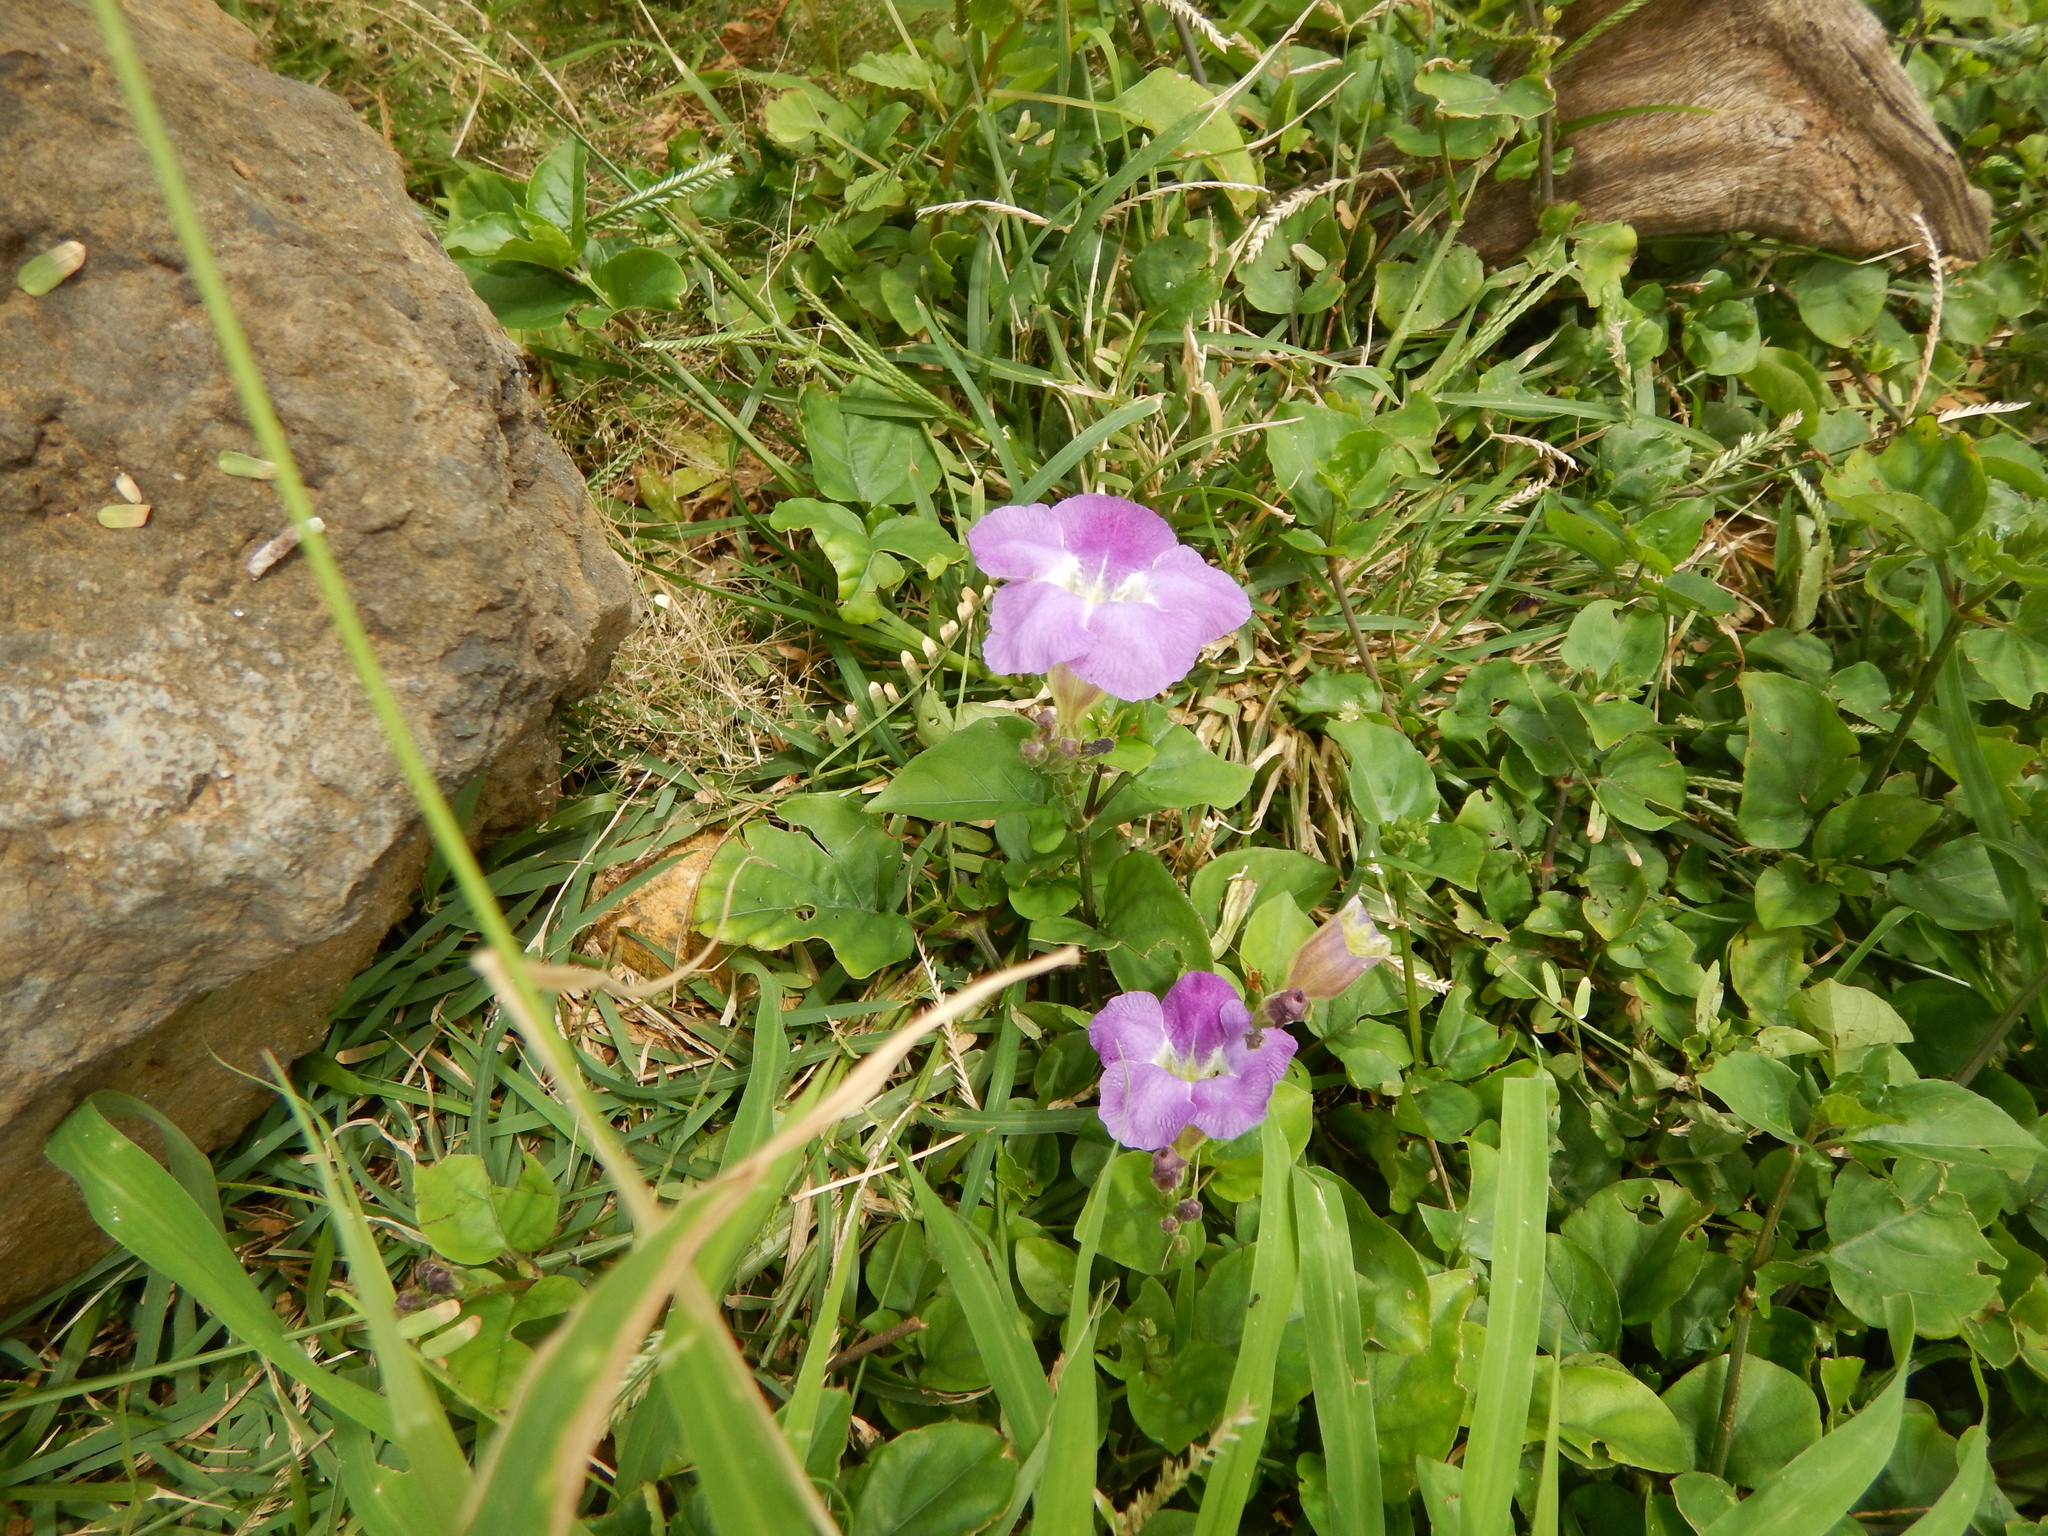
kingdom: Plantae
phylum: Tracheophyta
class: Magnoliopsida
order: Lamiales
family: Acanthaceae
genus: Asystasia
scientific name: Asystasia gangetica
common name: Chinese violet
